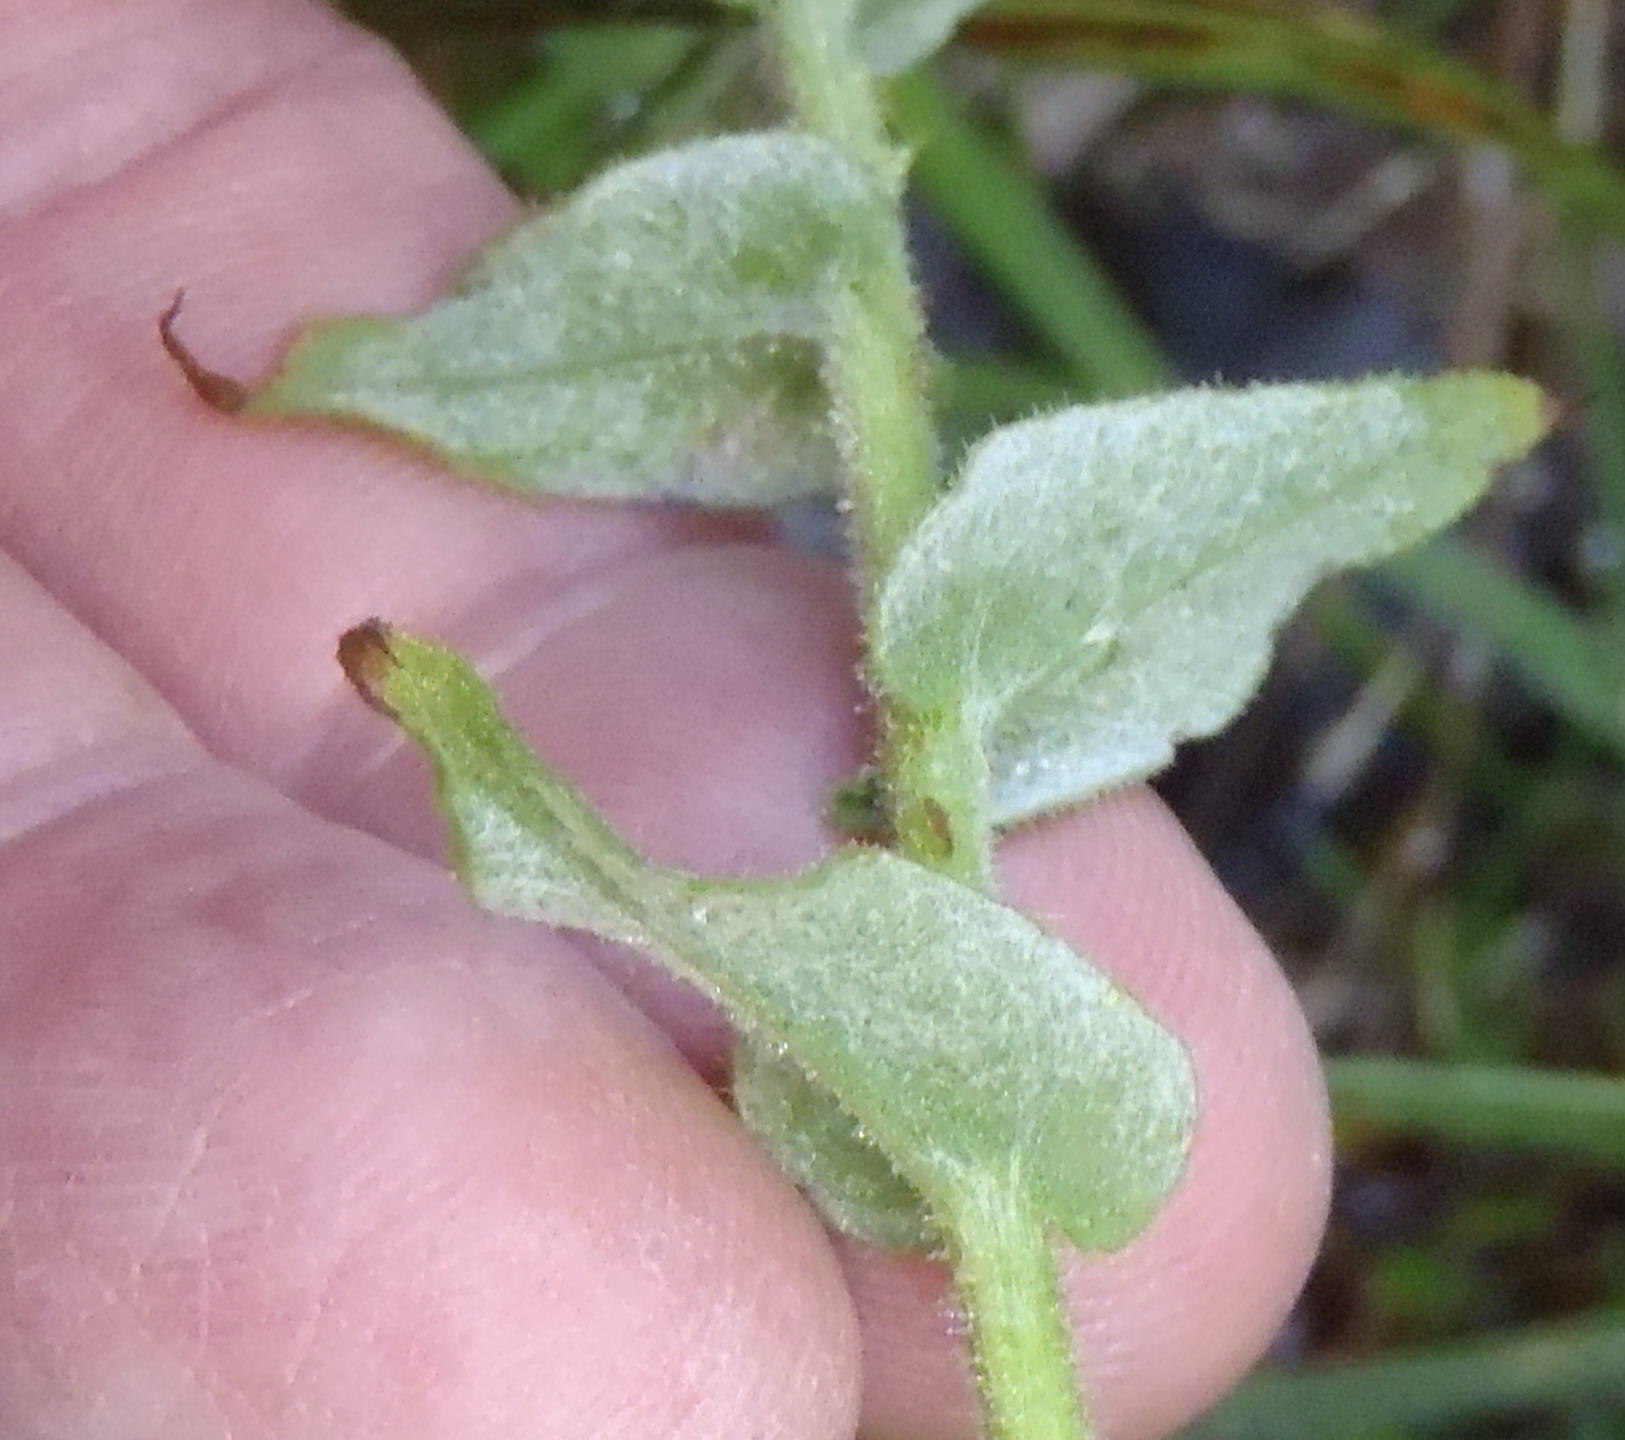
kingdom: Plantae
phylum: Tracheophyta
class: Magnoliopsida
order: Asterales
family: Asteraceae
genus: Helichrysum
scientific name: Helichrysum foetidum
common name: Stinking everlasting
